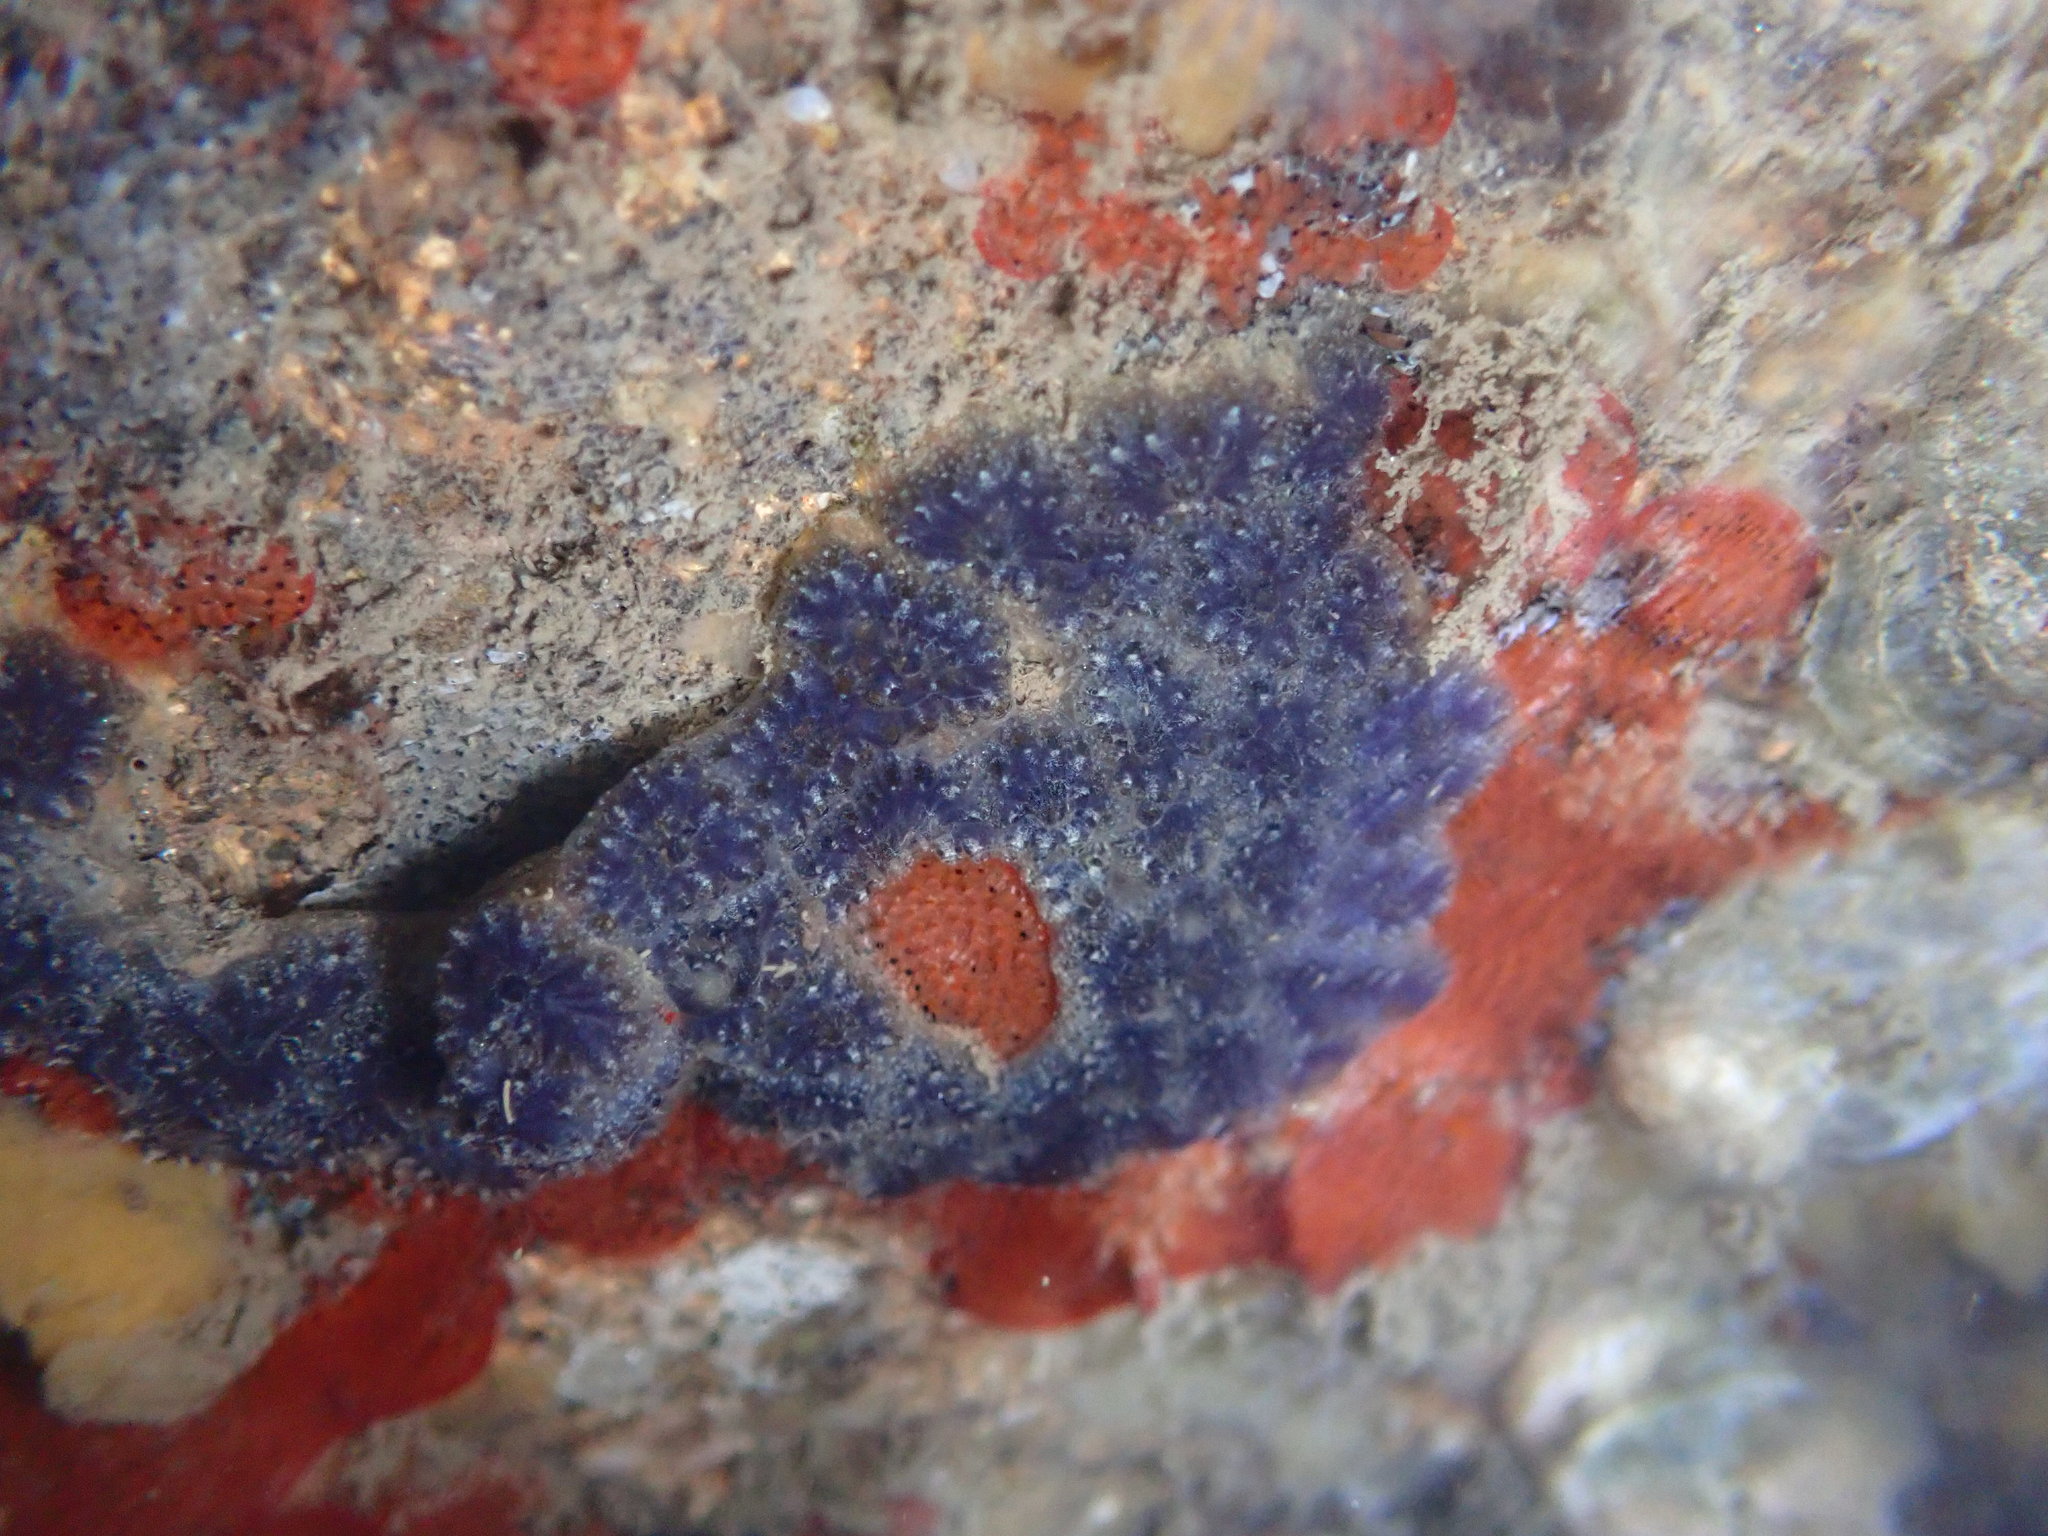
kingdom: Animalia
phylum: Chordata
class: Ascidiacea
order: Stolidobranchia
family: Styelidae
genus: Botryllus
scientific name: Botryllus schlosseri
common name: Golden star tunicate
